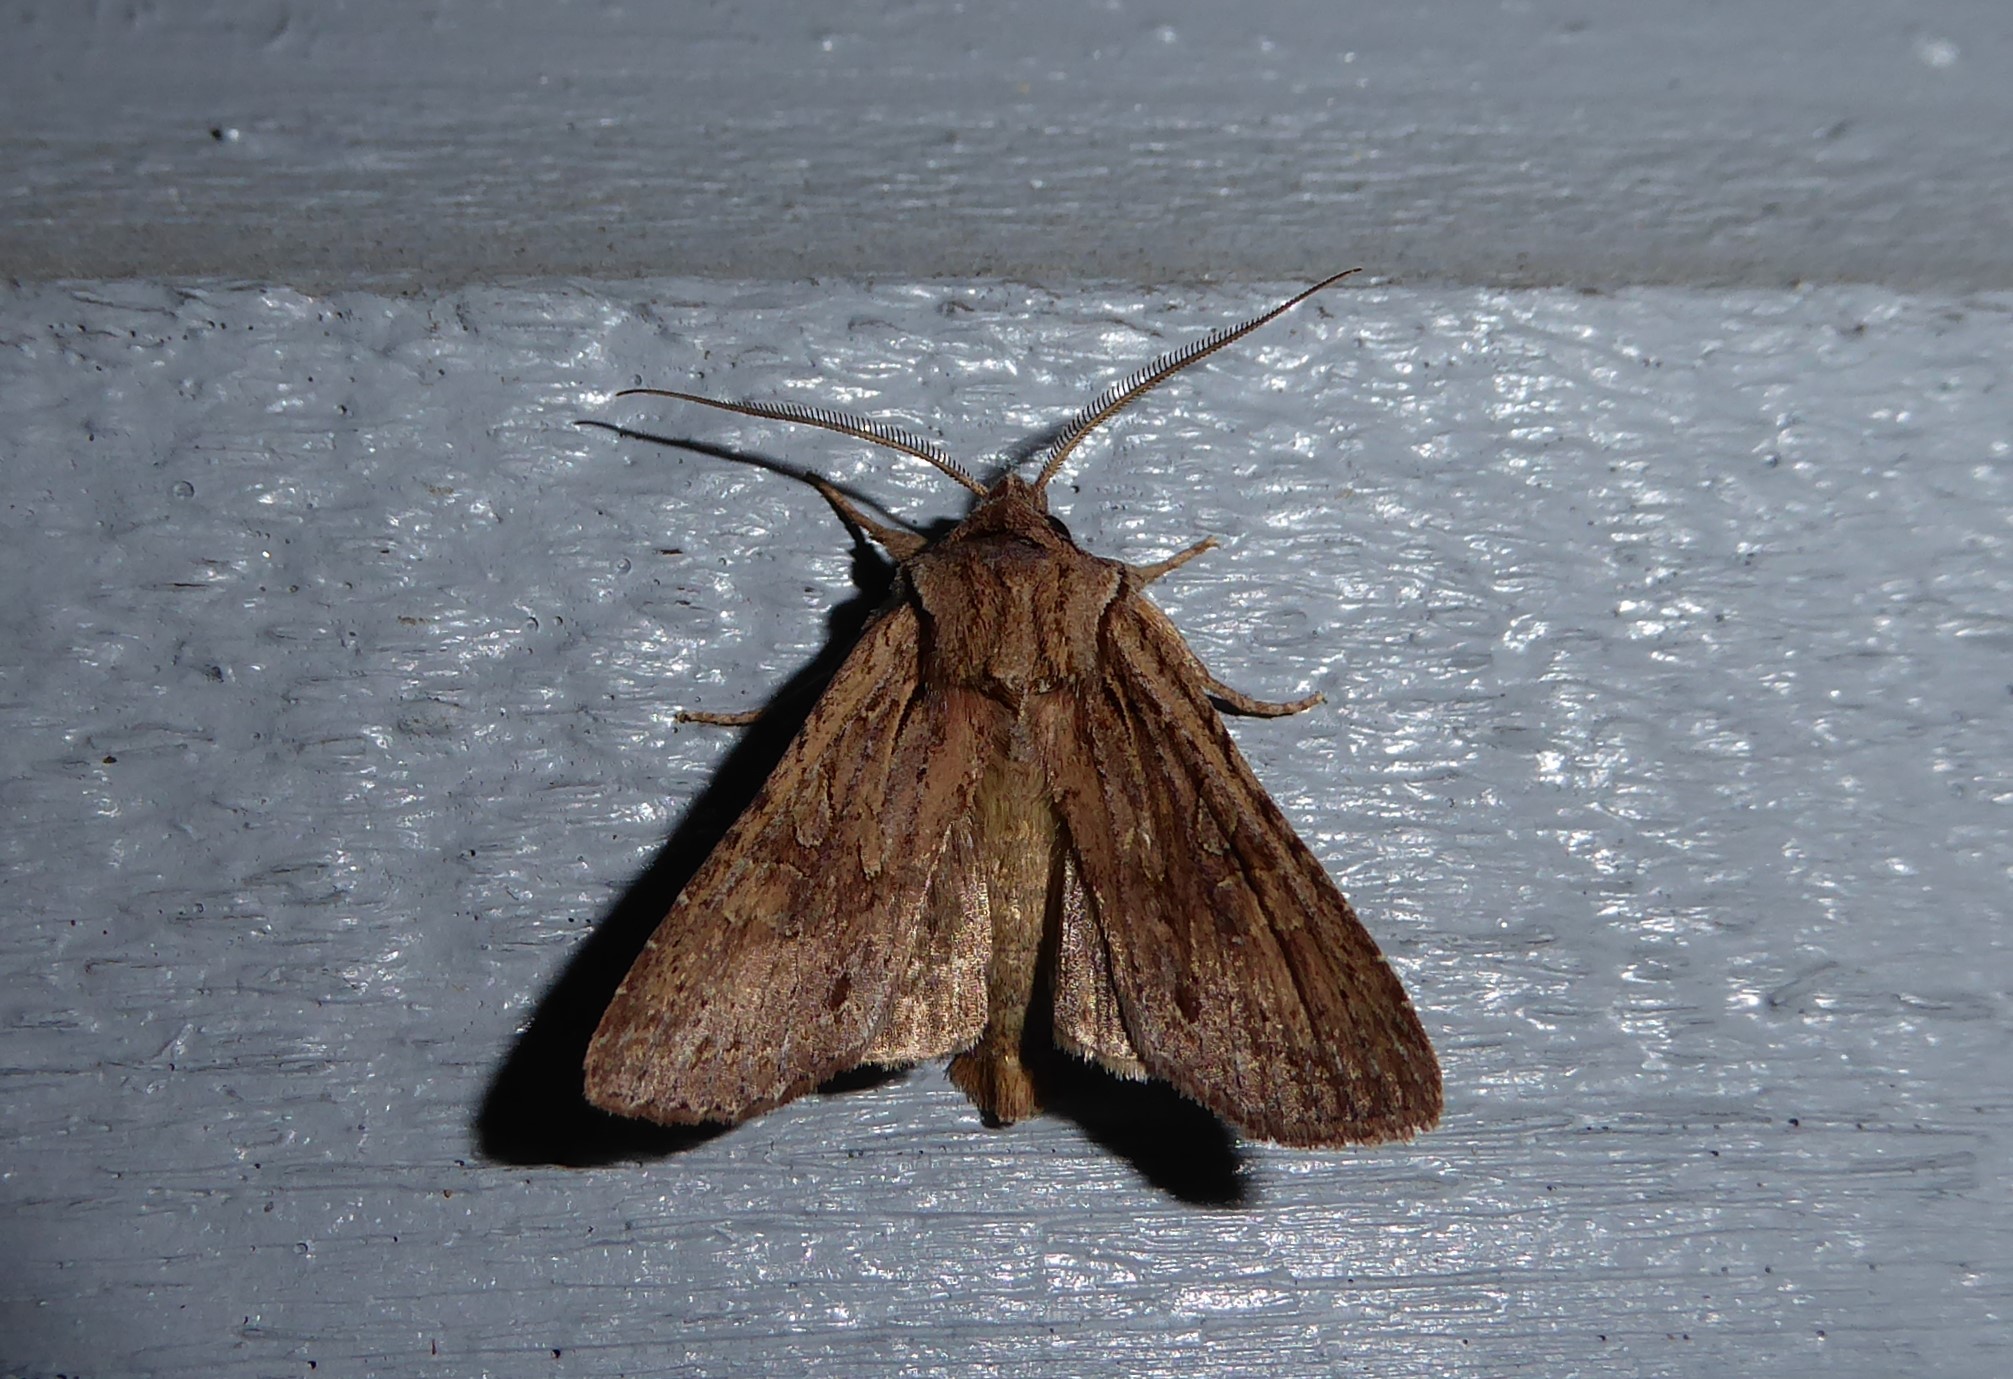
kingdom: Animalia
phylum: Arthropoda
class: Insecta
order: Lepidoptera
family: Noctuidae
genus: Ichneutica
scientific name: Ichneutica
